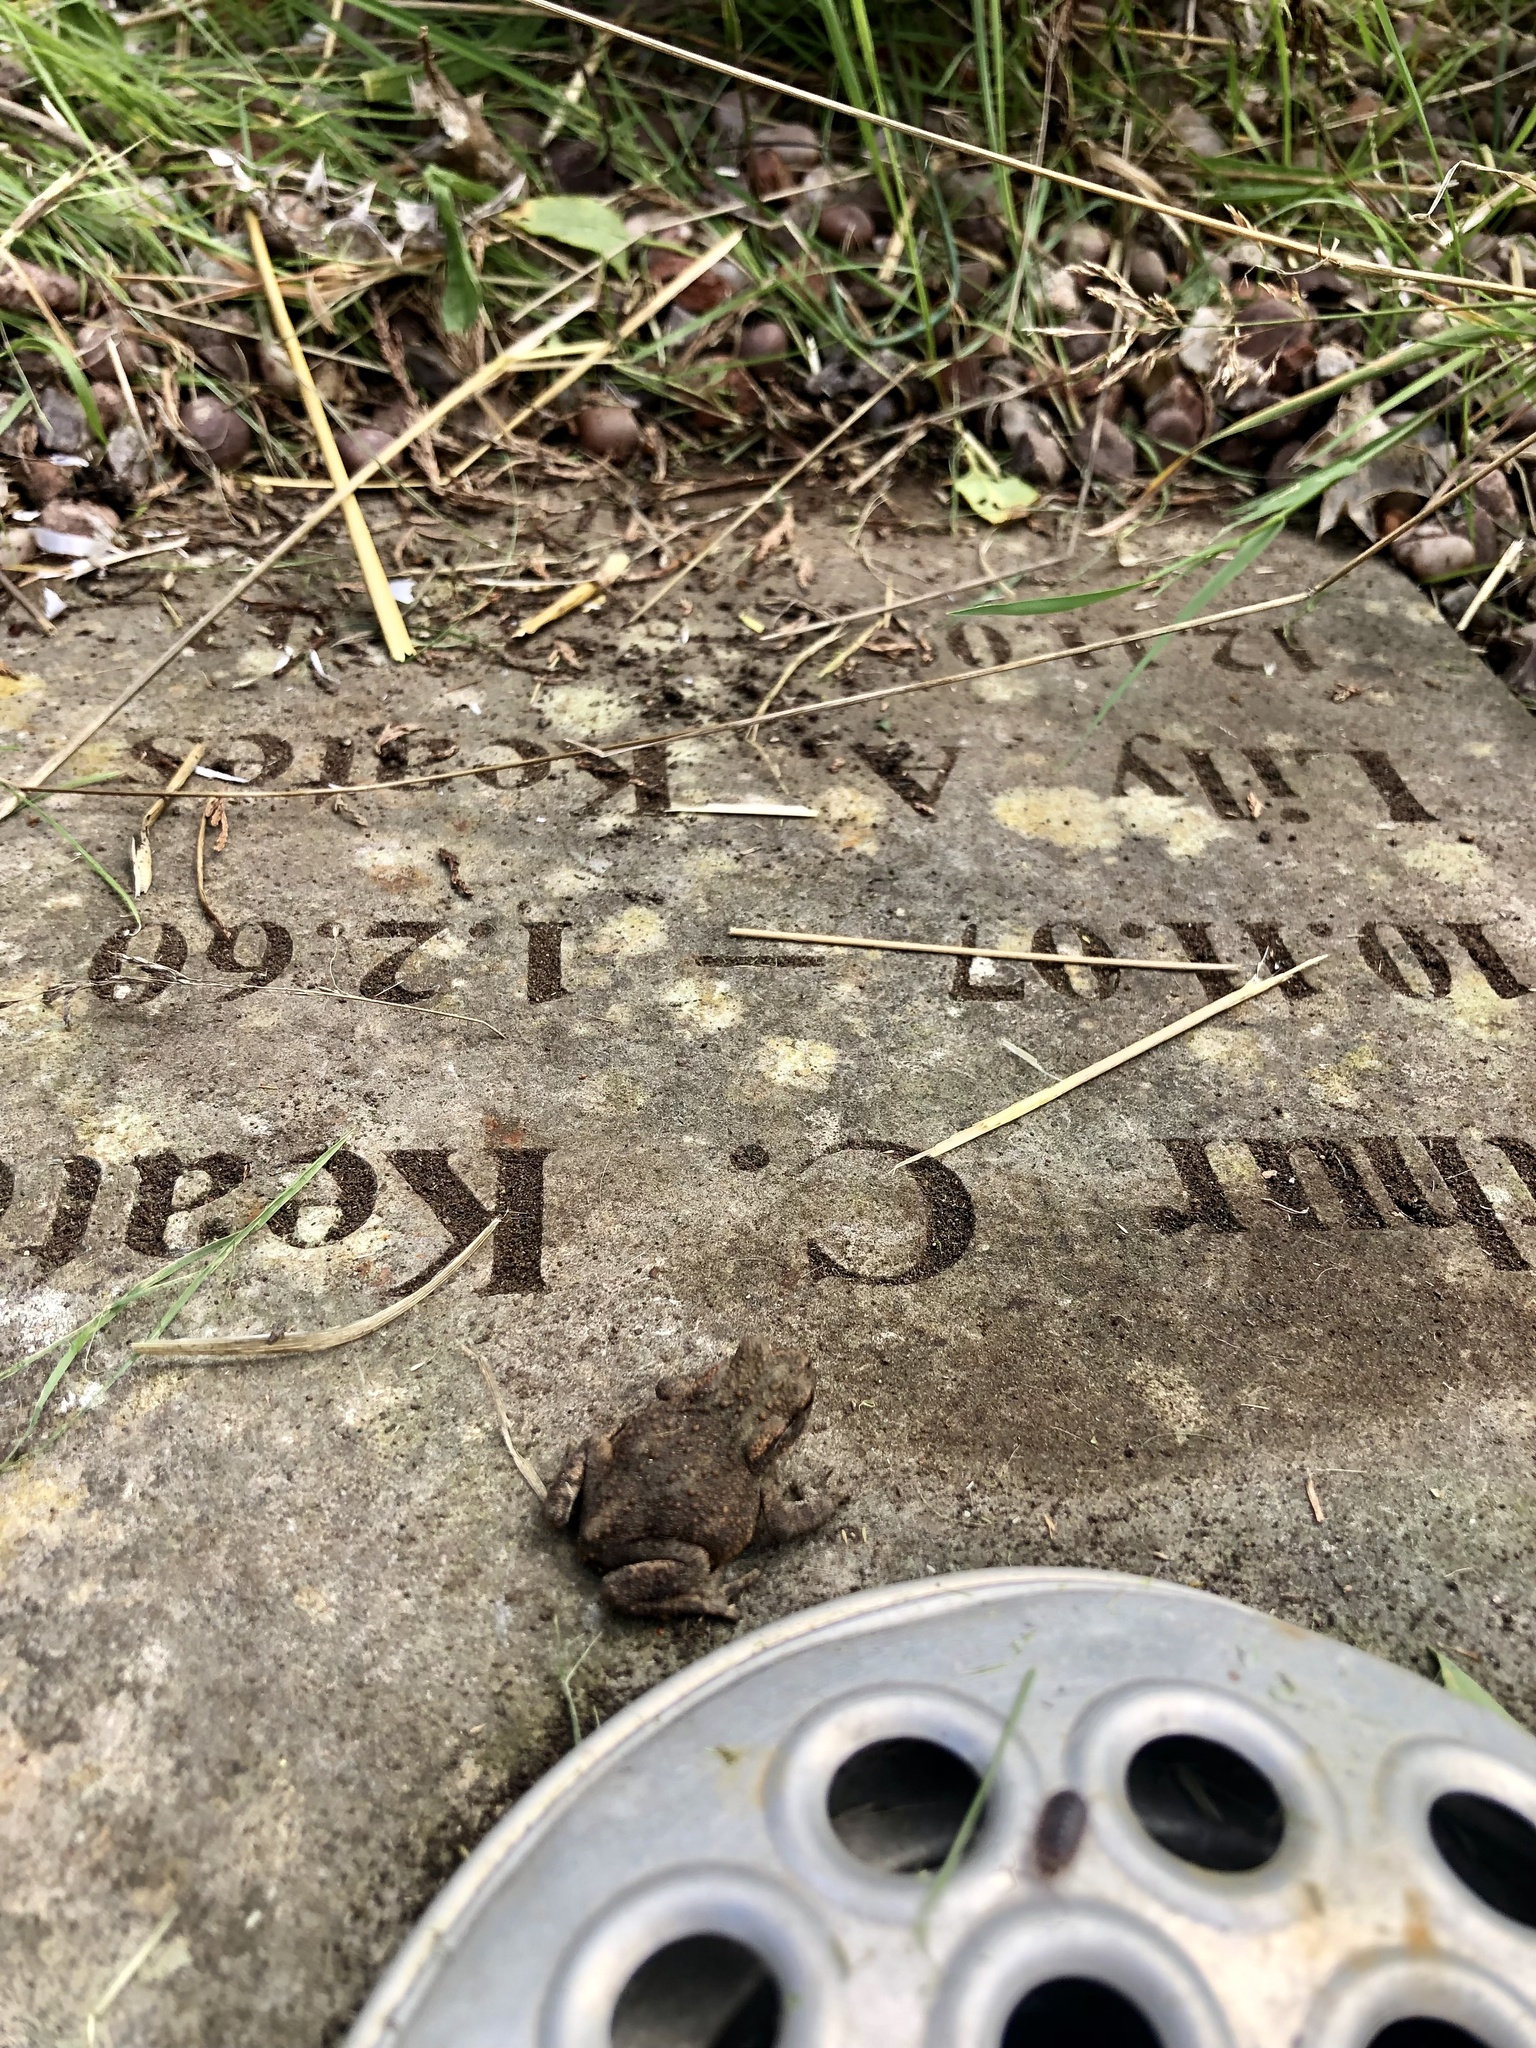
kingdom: Animalia
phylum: Chordata
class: Amphibia
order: Anura
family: Bufonidae
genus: Bufo
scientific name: Bufo bufo
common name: Common toad
